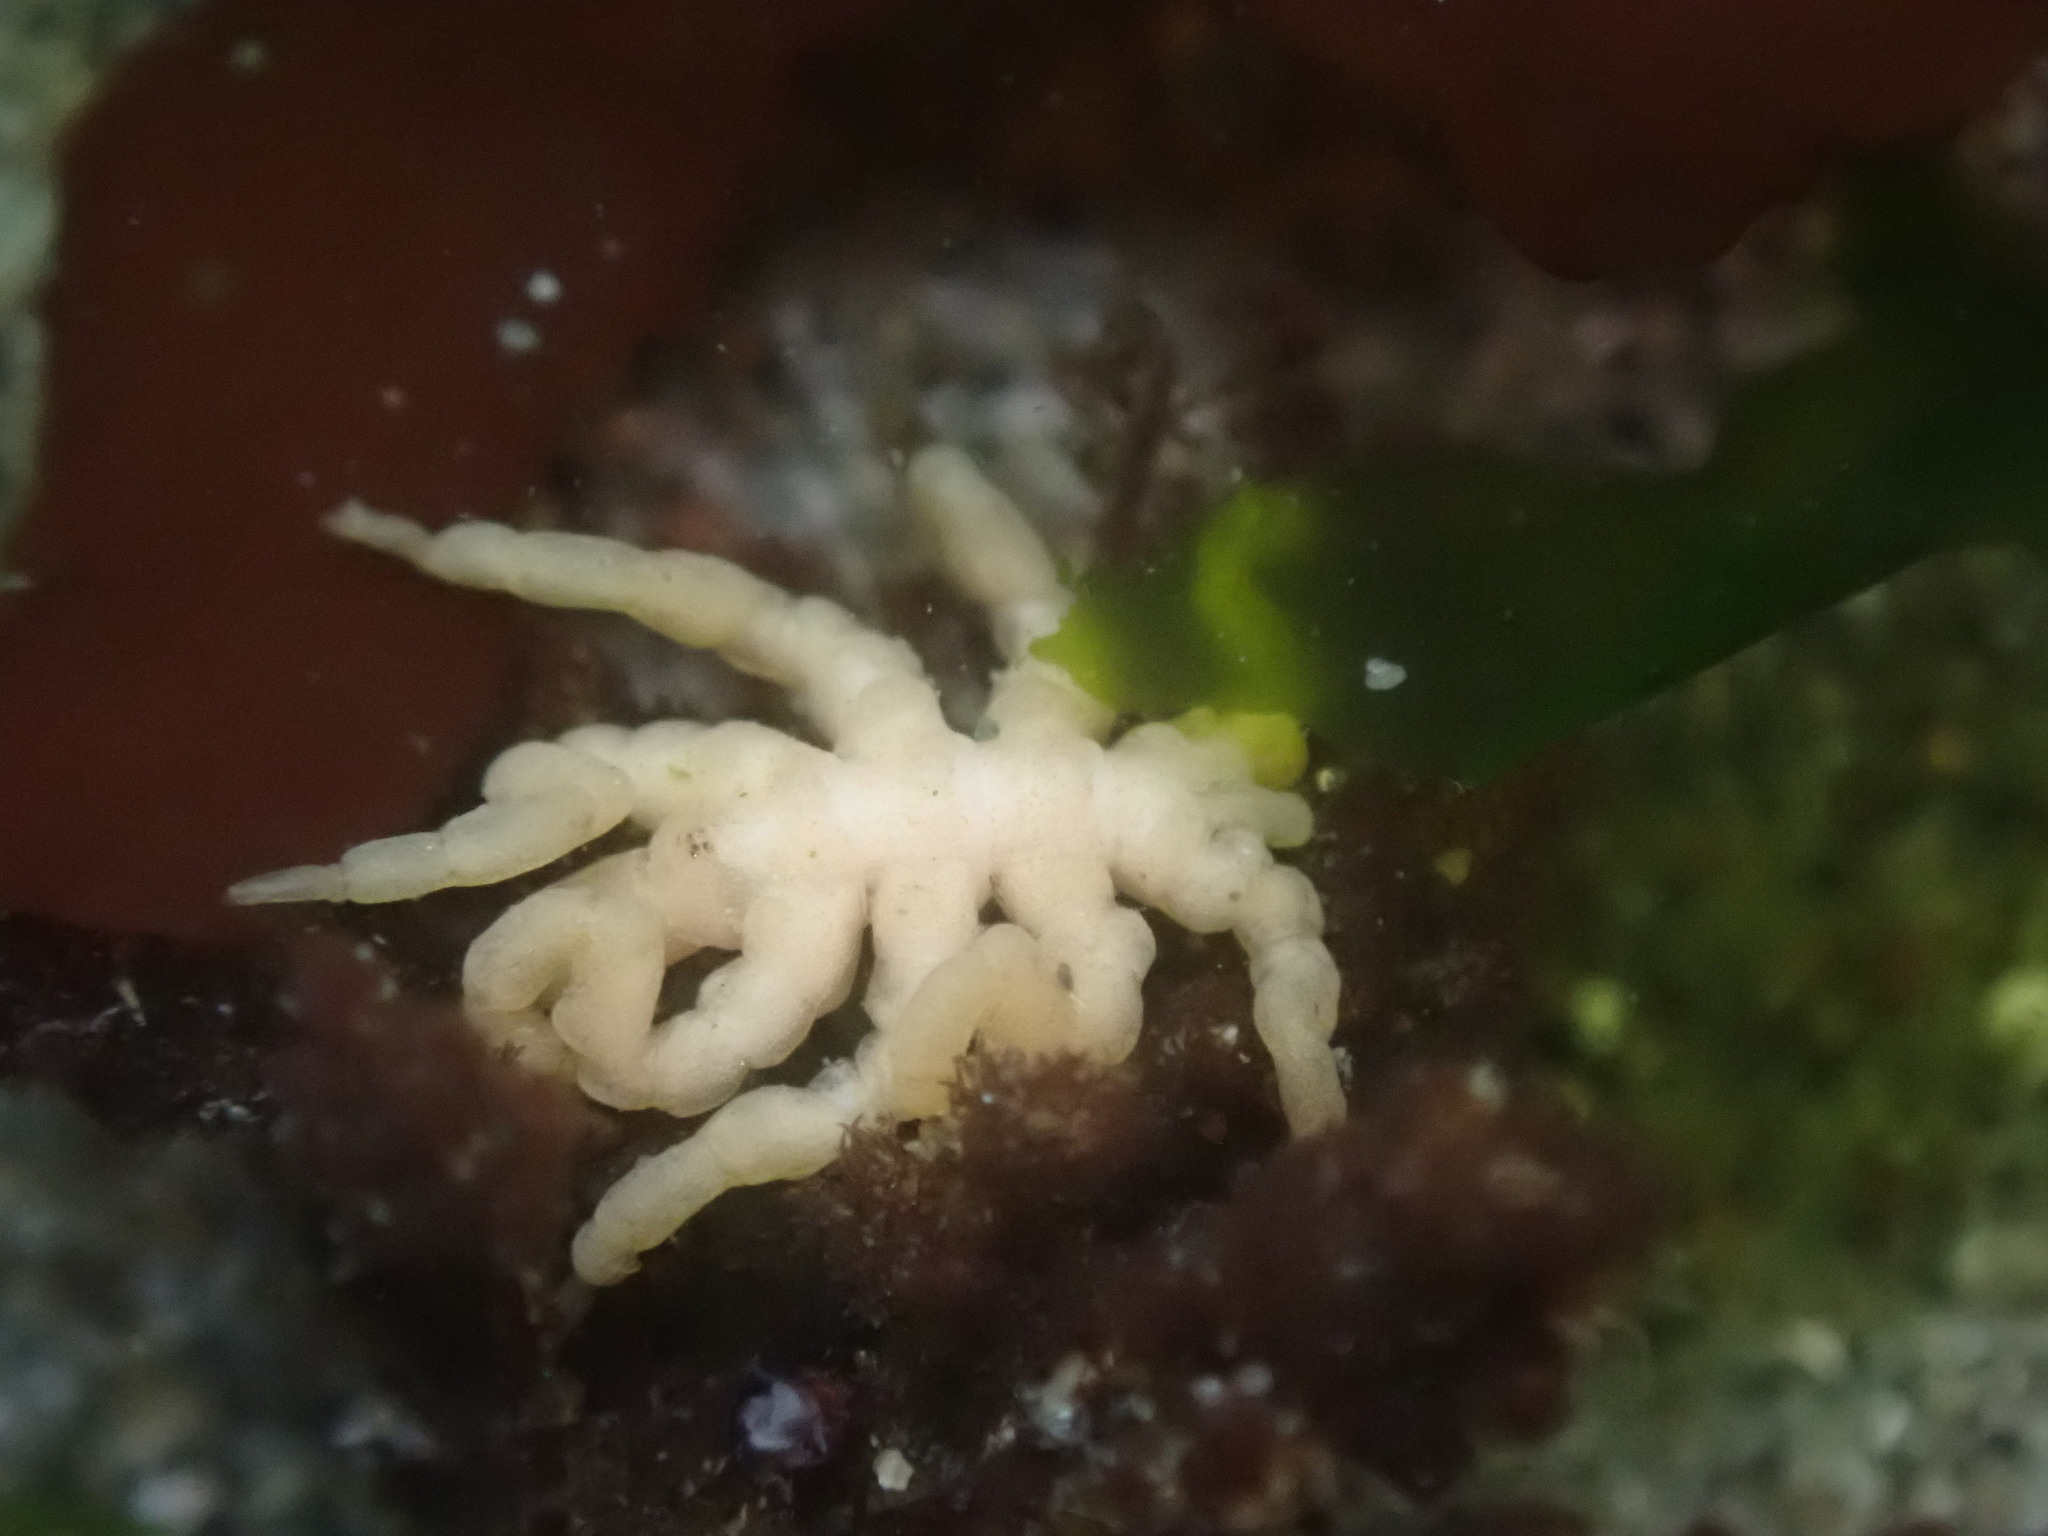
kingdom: Animalia
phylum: Arthropoda
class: Pycnogonida
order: Pantopoda
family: Pycnogonidae
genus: Pycnogonum
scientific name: Pycnogonum stearnsi
